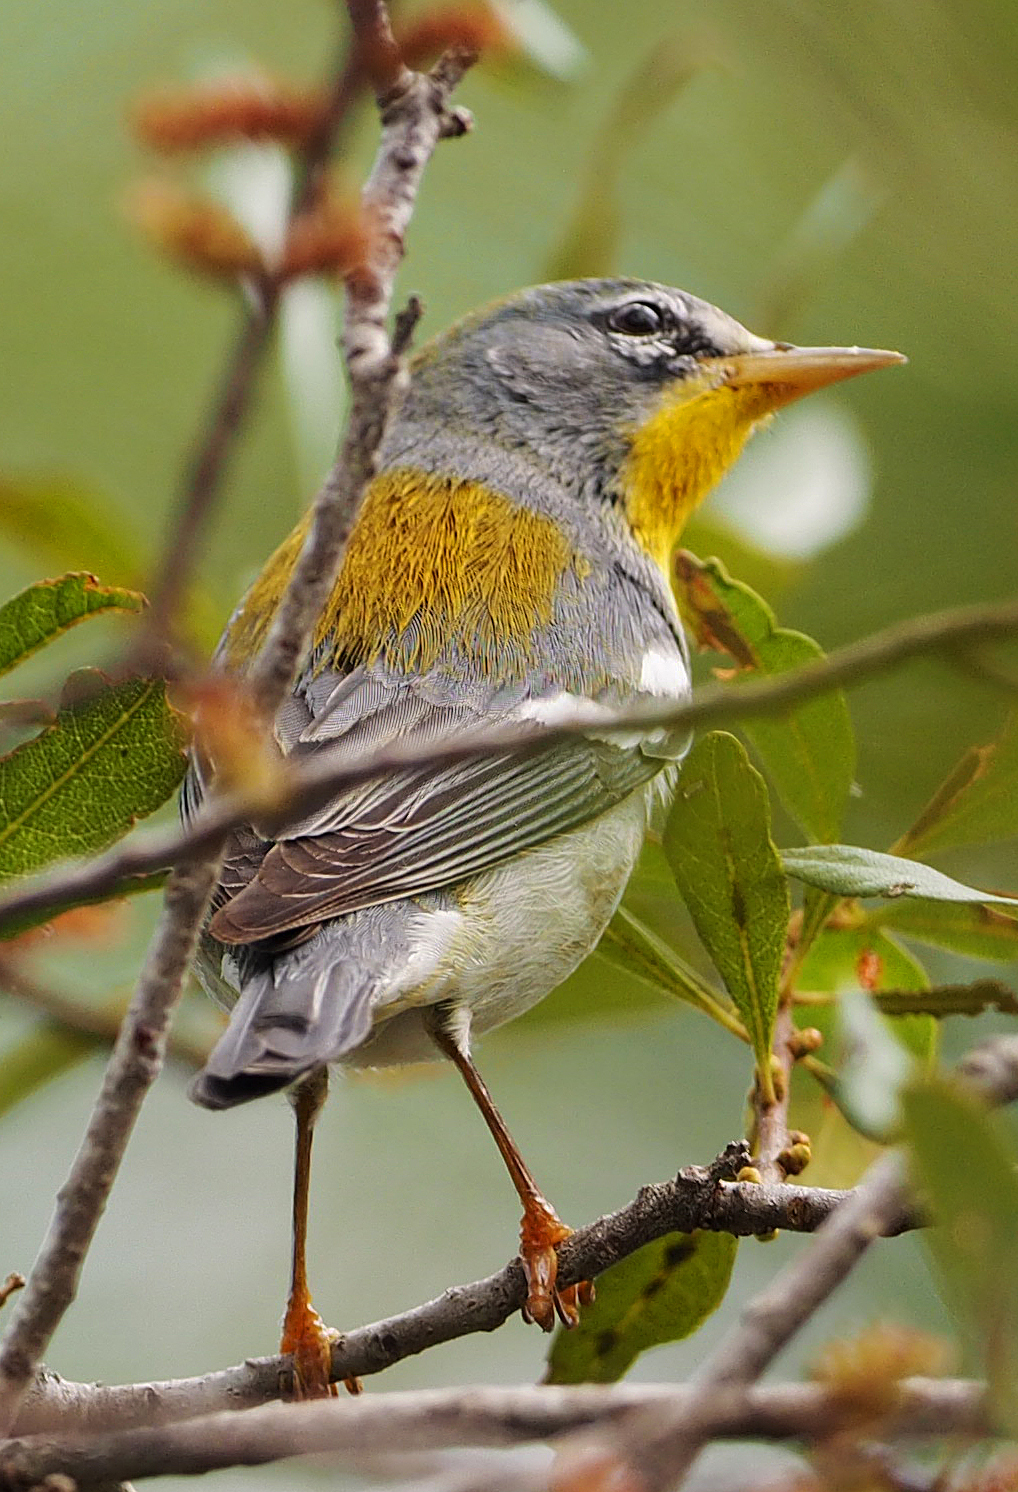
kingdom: Animalia
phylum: Chordata
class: Aves
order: Passeriformes
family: Parulidae
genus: Setophaga
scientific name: Setophaga americana
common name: Northern parula
